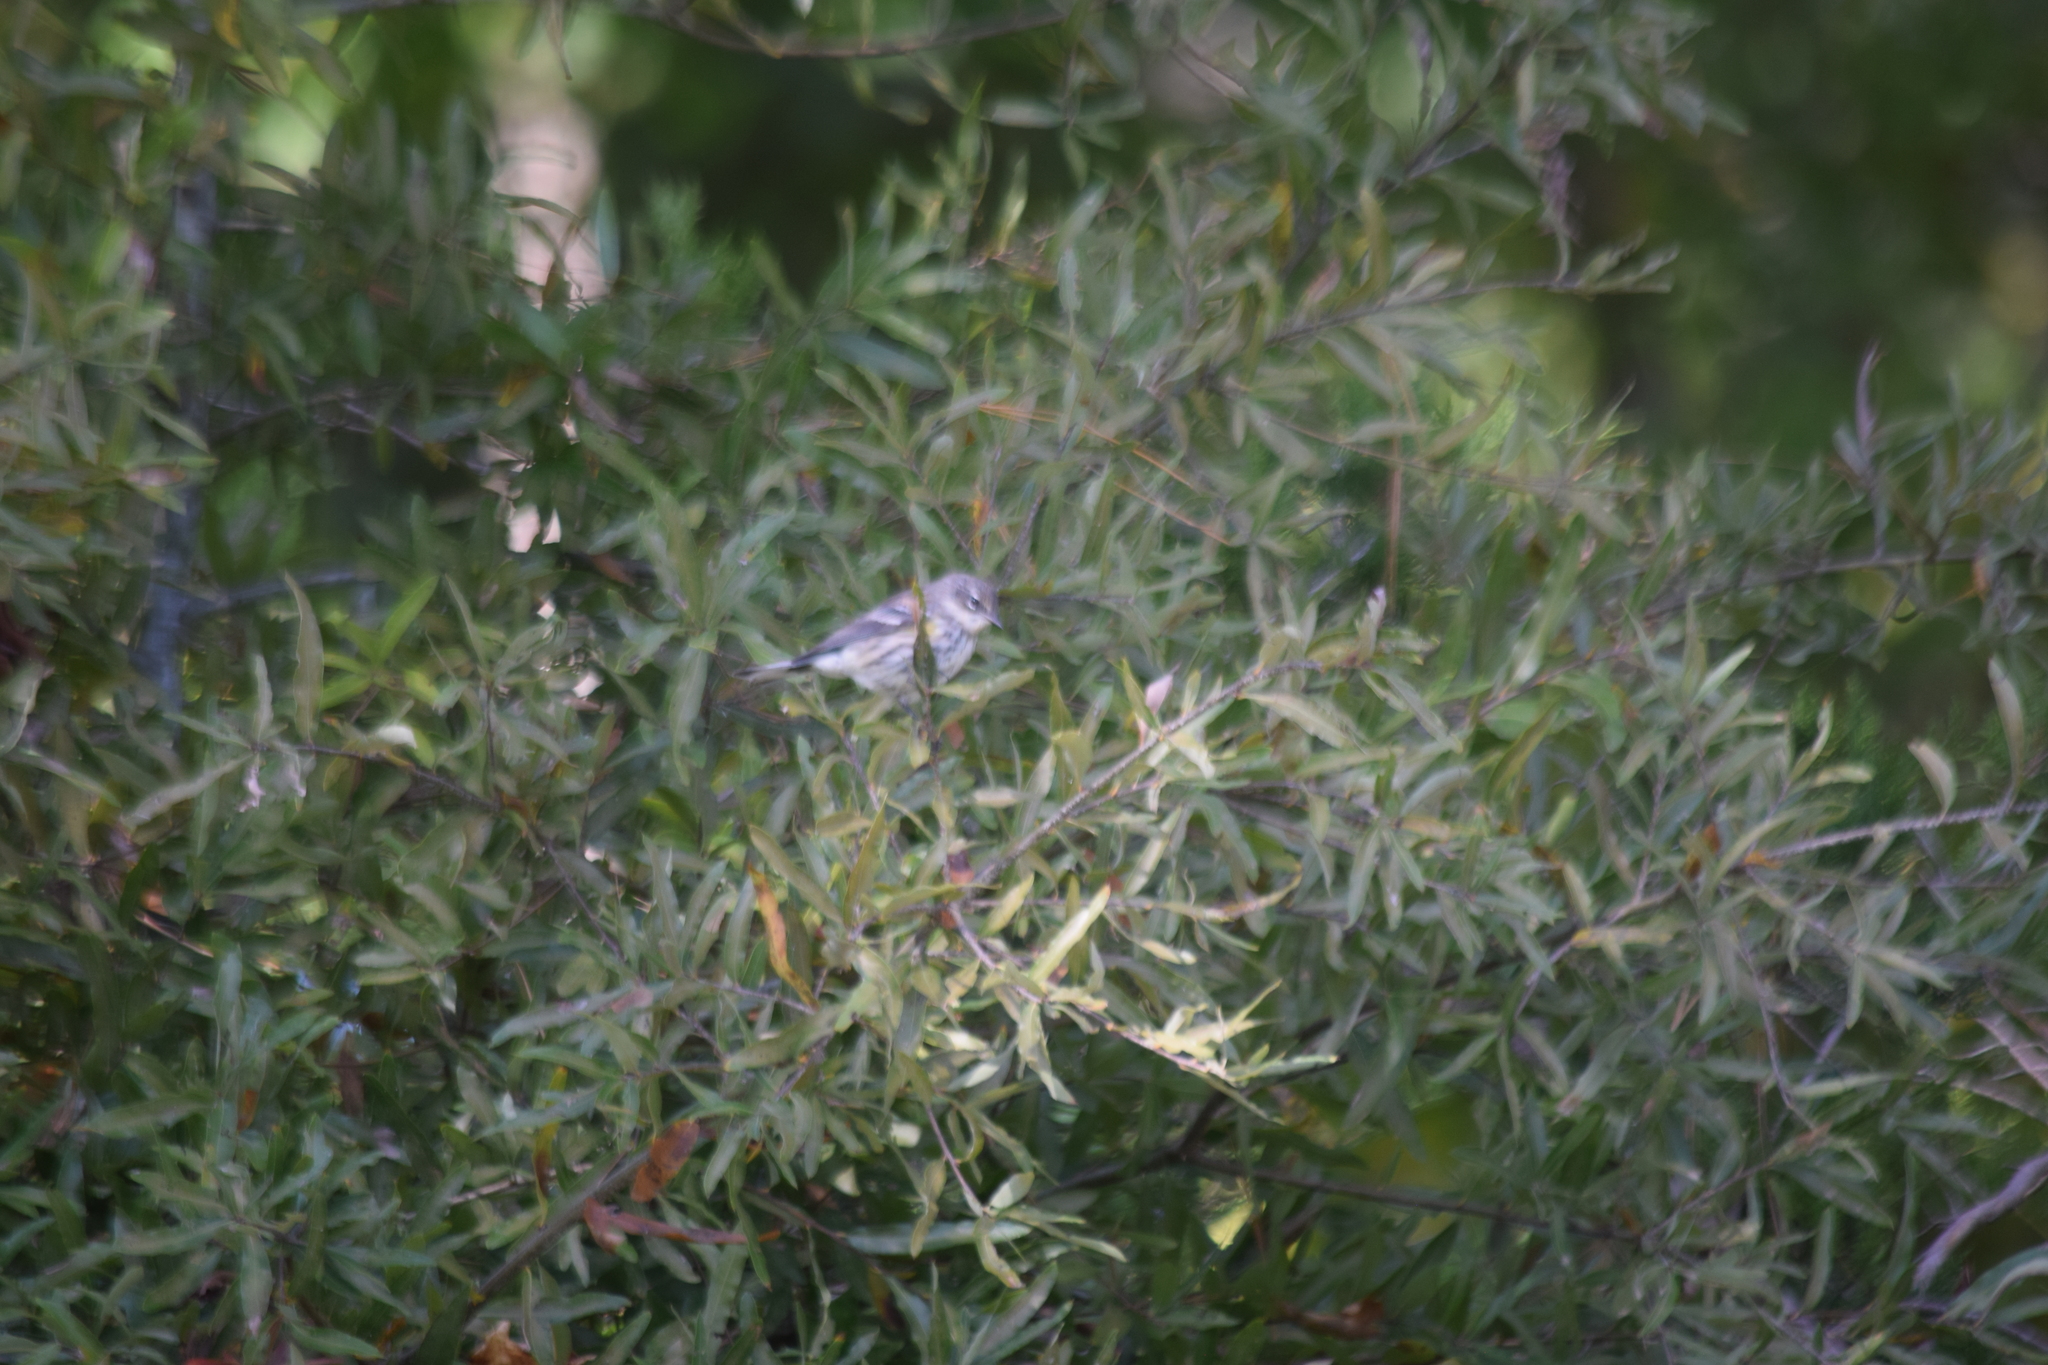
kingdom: Animalia
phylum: Chordata
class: Aves
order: Passeriformes
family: Parulidae
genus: Setophaga
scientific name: Setophaga coronata
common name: Myrtle warbler
